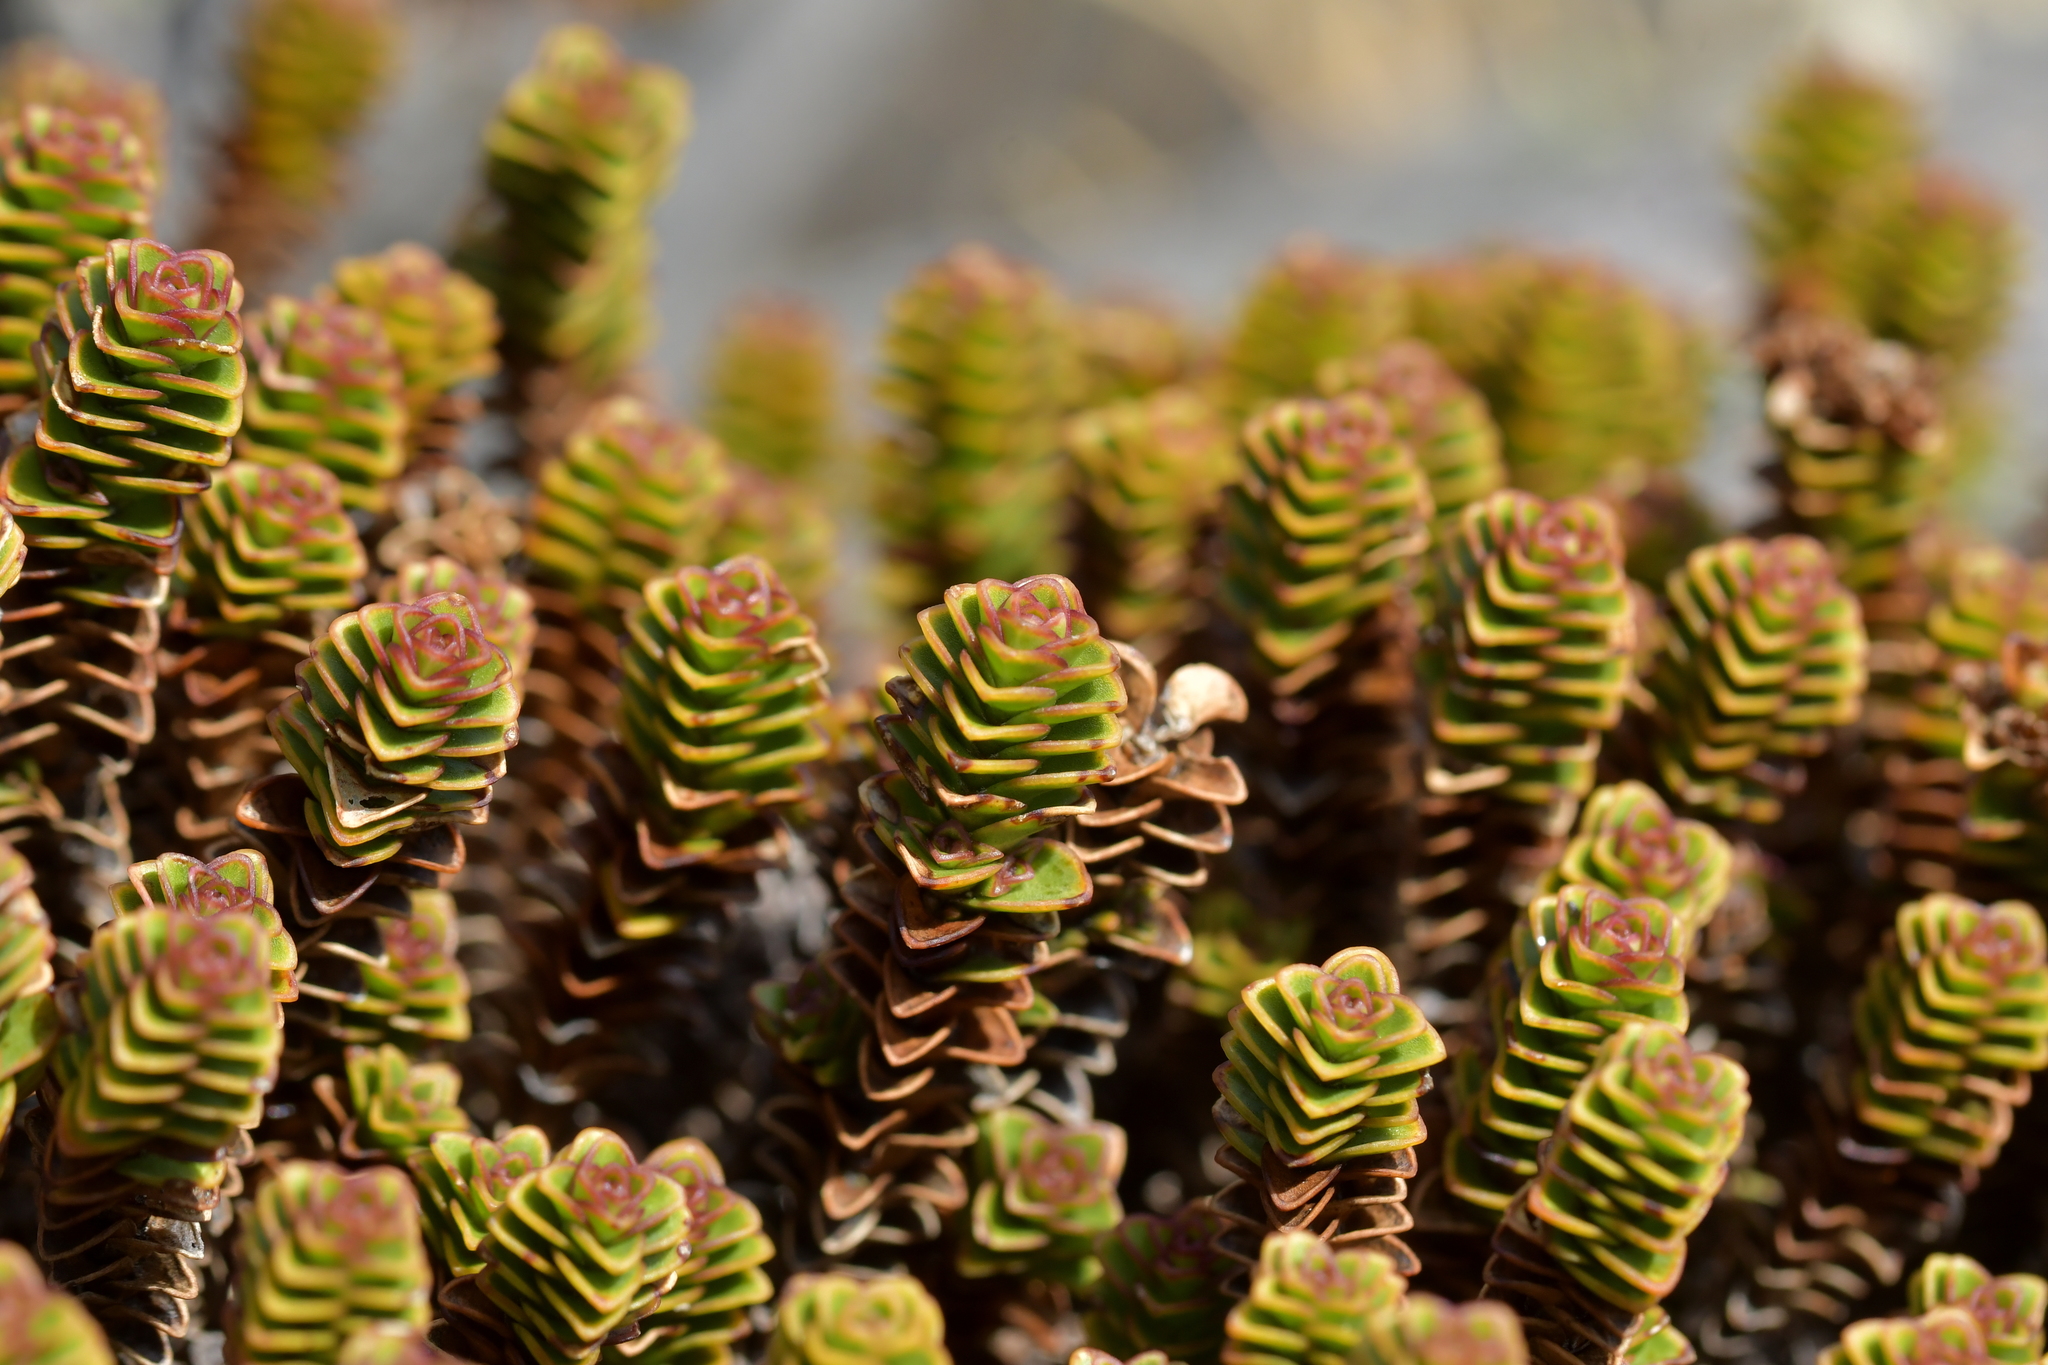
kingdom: Plantae
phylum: Tracheophyta
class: Magnoliopsida
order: Lamiales
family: Plantaginaceae
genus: Veronica
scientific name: Veronica epacridea
